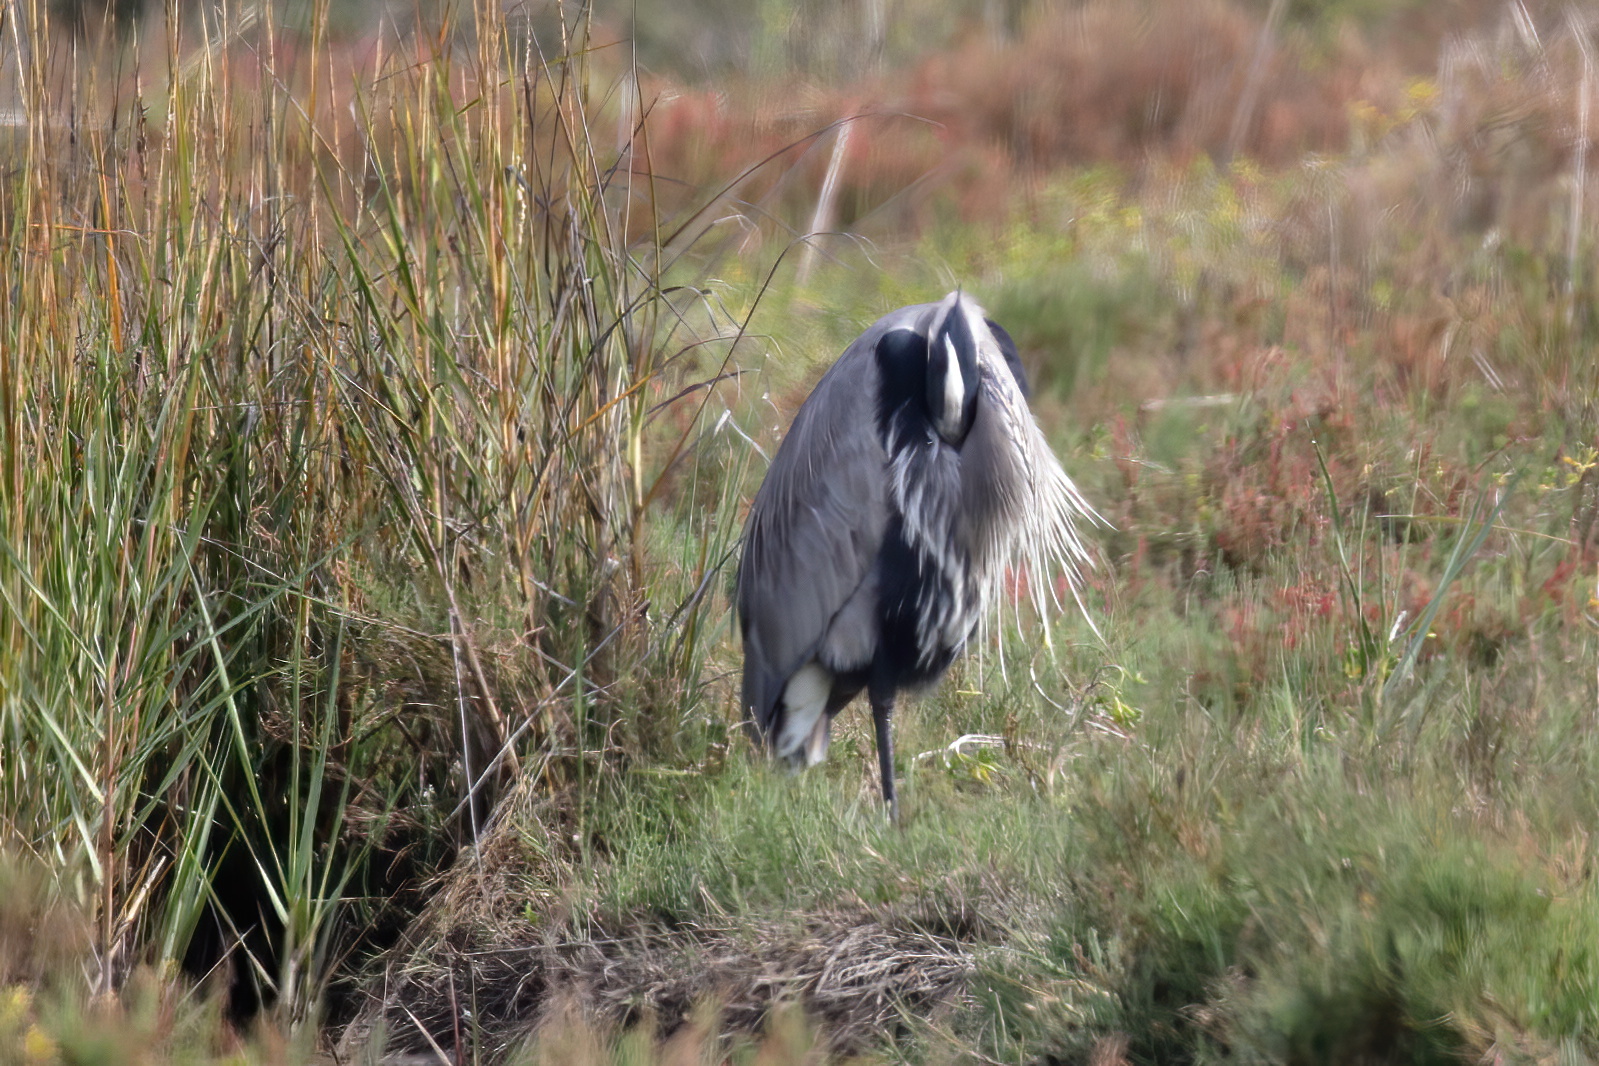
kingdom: Animalia
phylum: Chordata
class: Aves
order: Pelecaniformes
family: Ardeidae
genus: Ardea
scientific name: Ardea herodias
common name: Great blue heron
